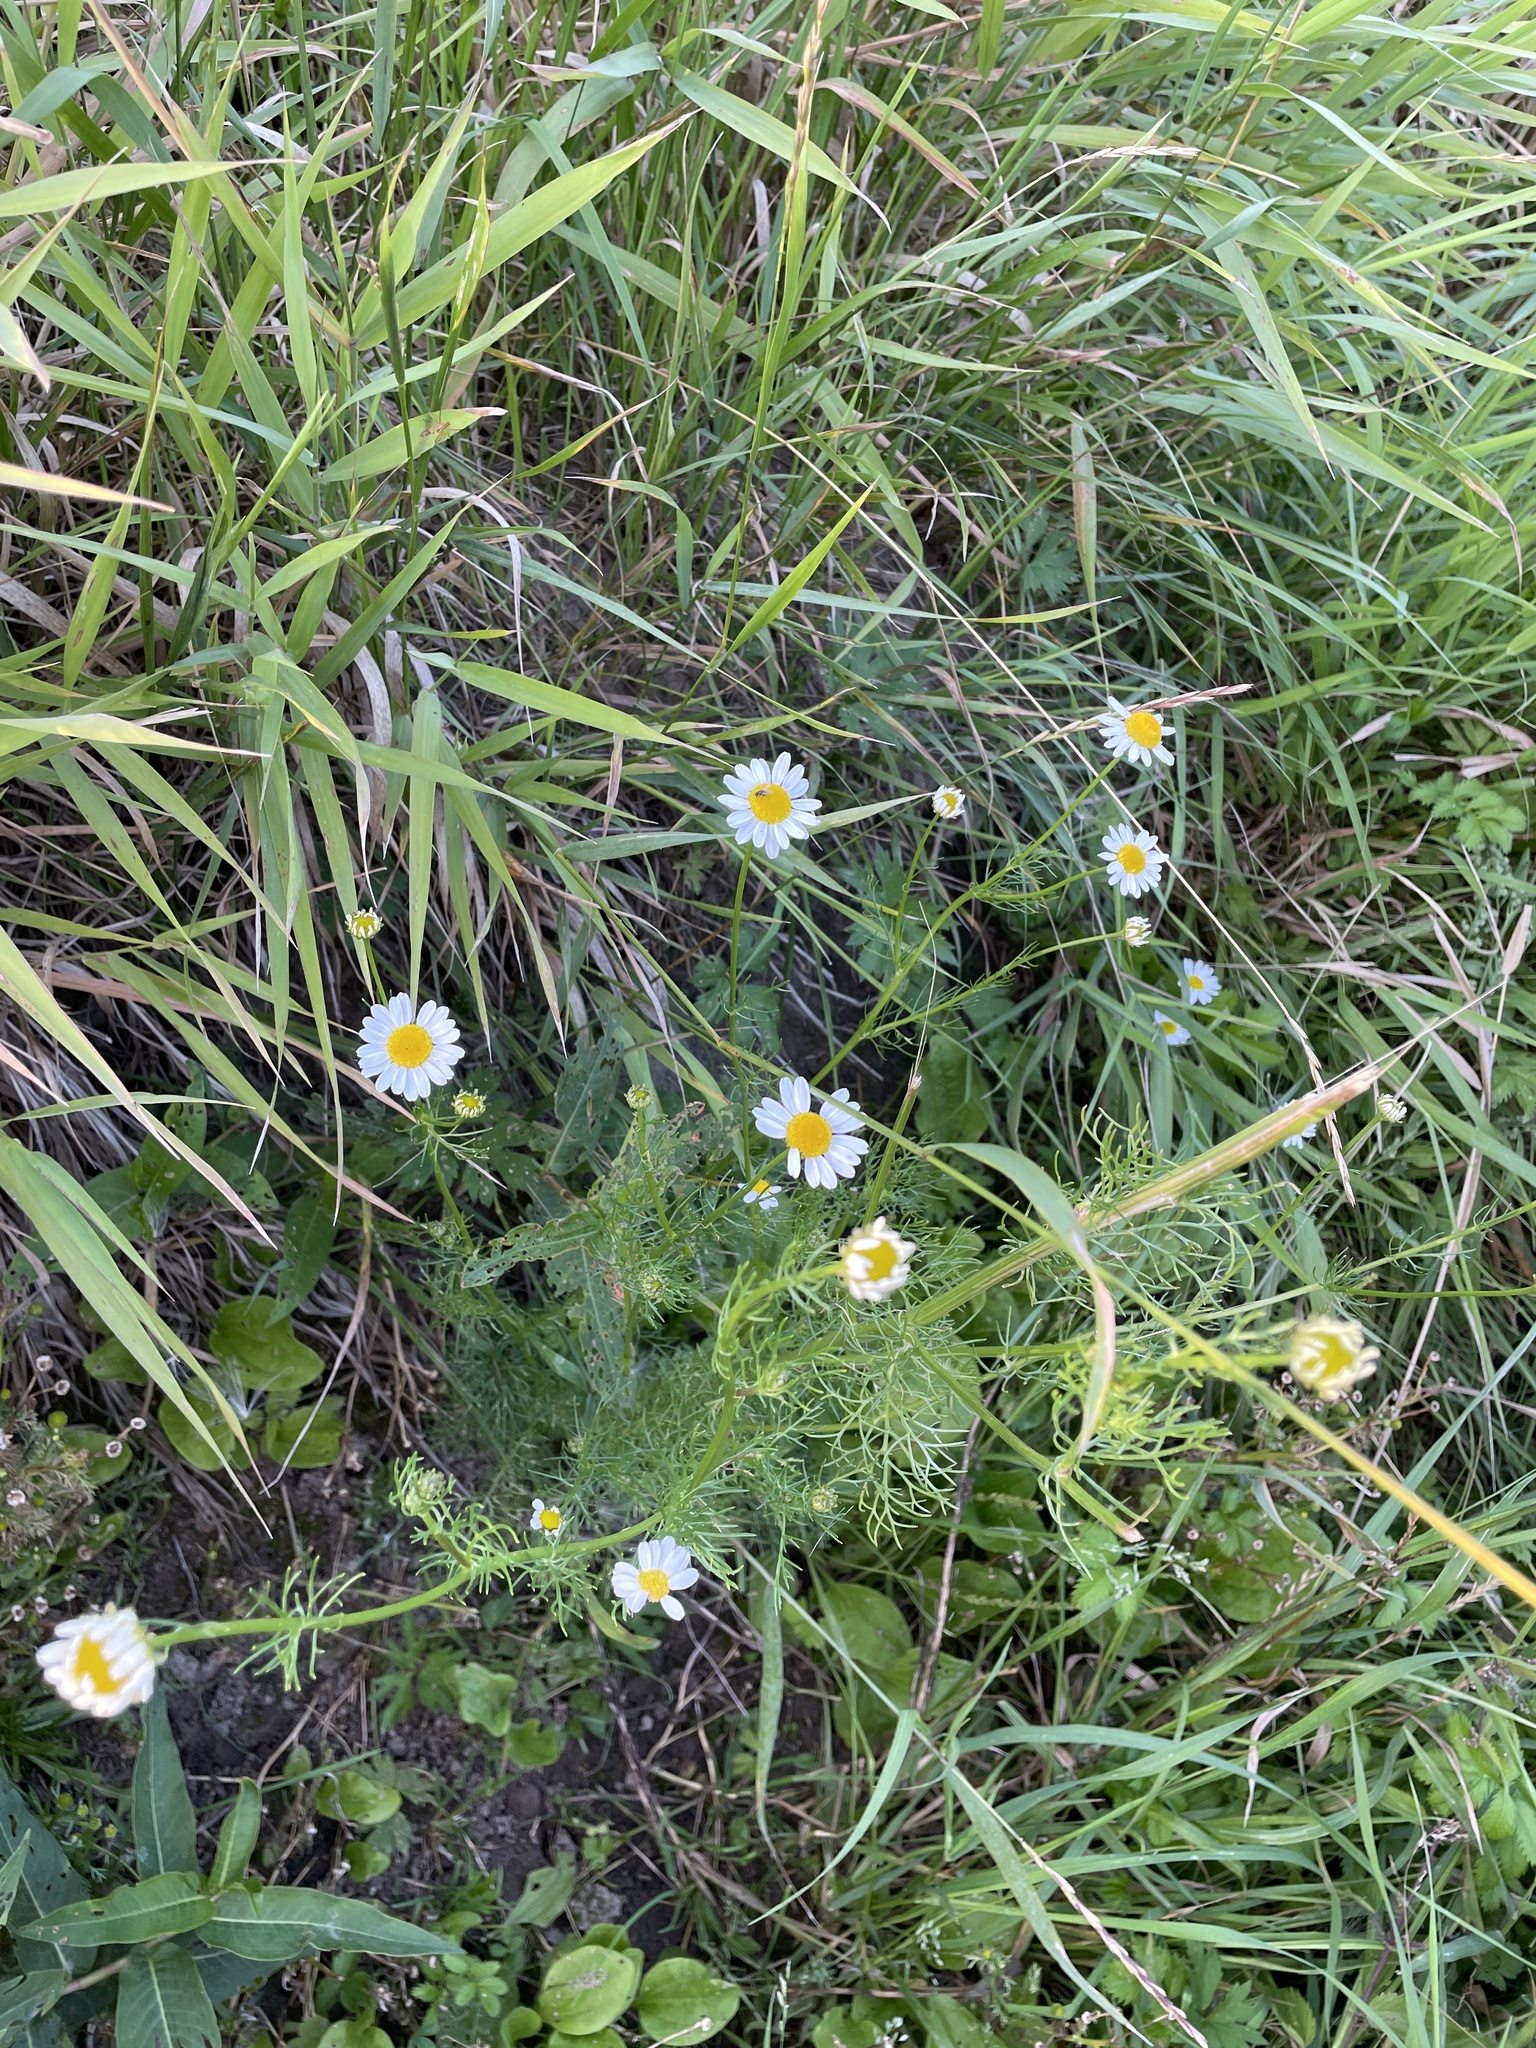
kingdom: Plantae
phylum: Tracheophyta
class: Magnoliopsida
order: Asterales
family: Asteraceae
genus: Tripleurospermum
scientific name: Tripleurospermum inodorum
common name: Scentless mayweed
